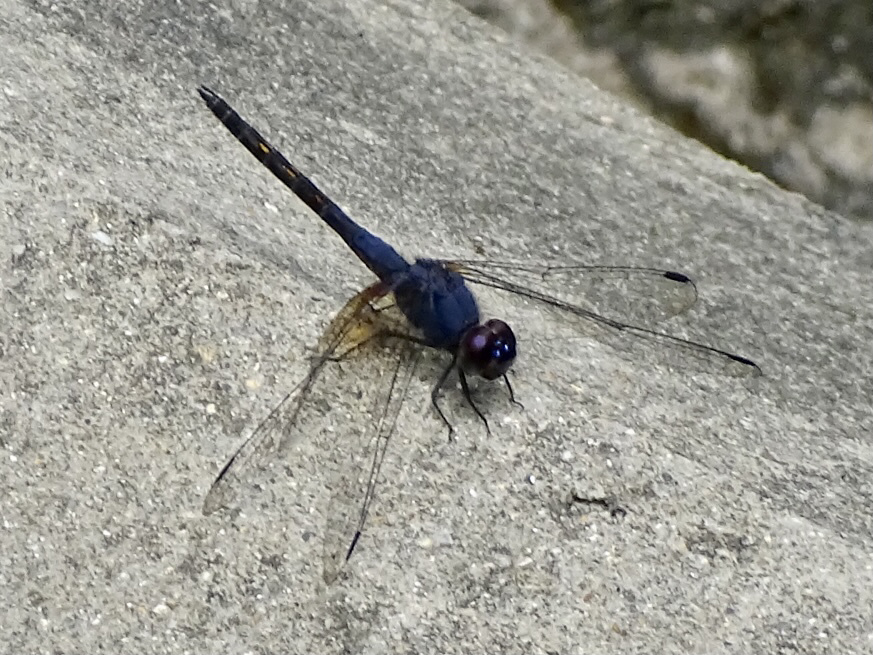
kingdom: Animalia
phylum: Arthropoda
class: Insecta
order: Odonata
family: Libellulidae
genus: Trithemis
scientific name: Trithemis festiva
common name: Indigo dropwing
